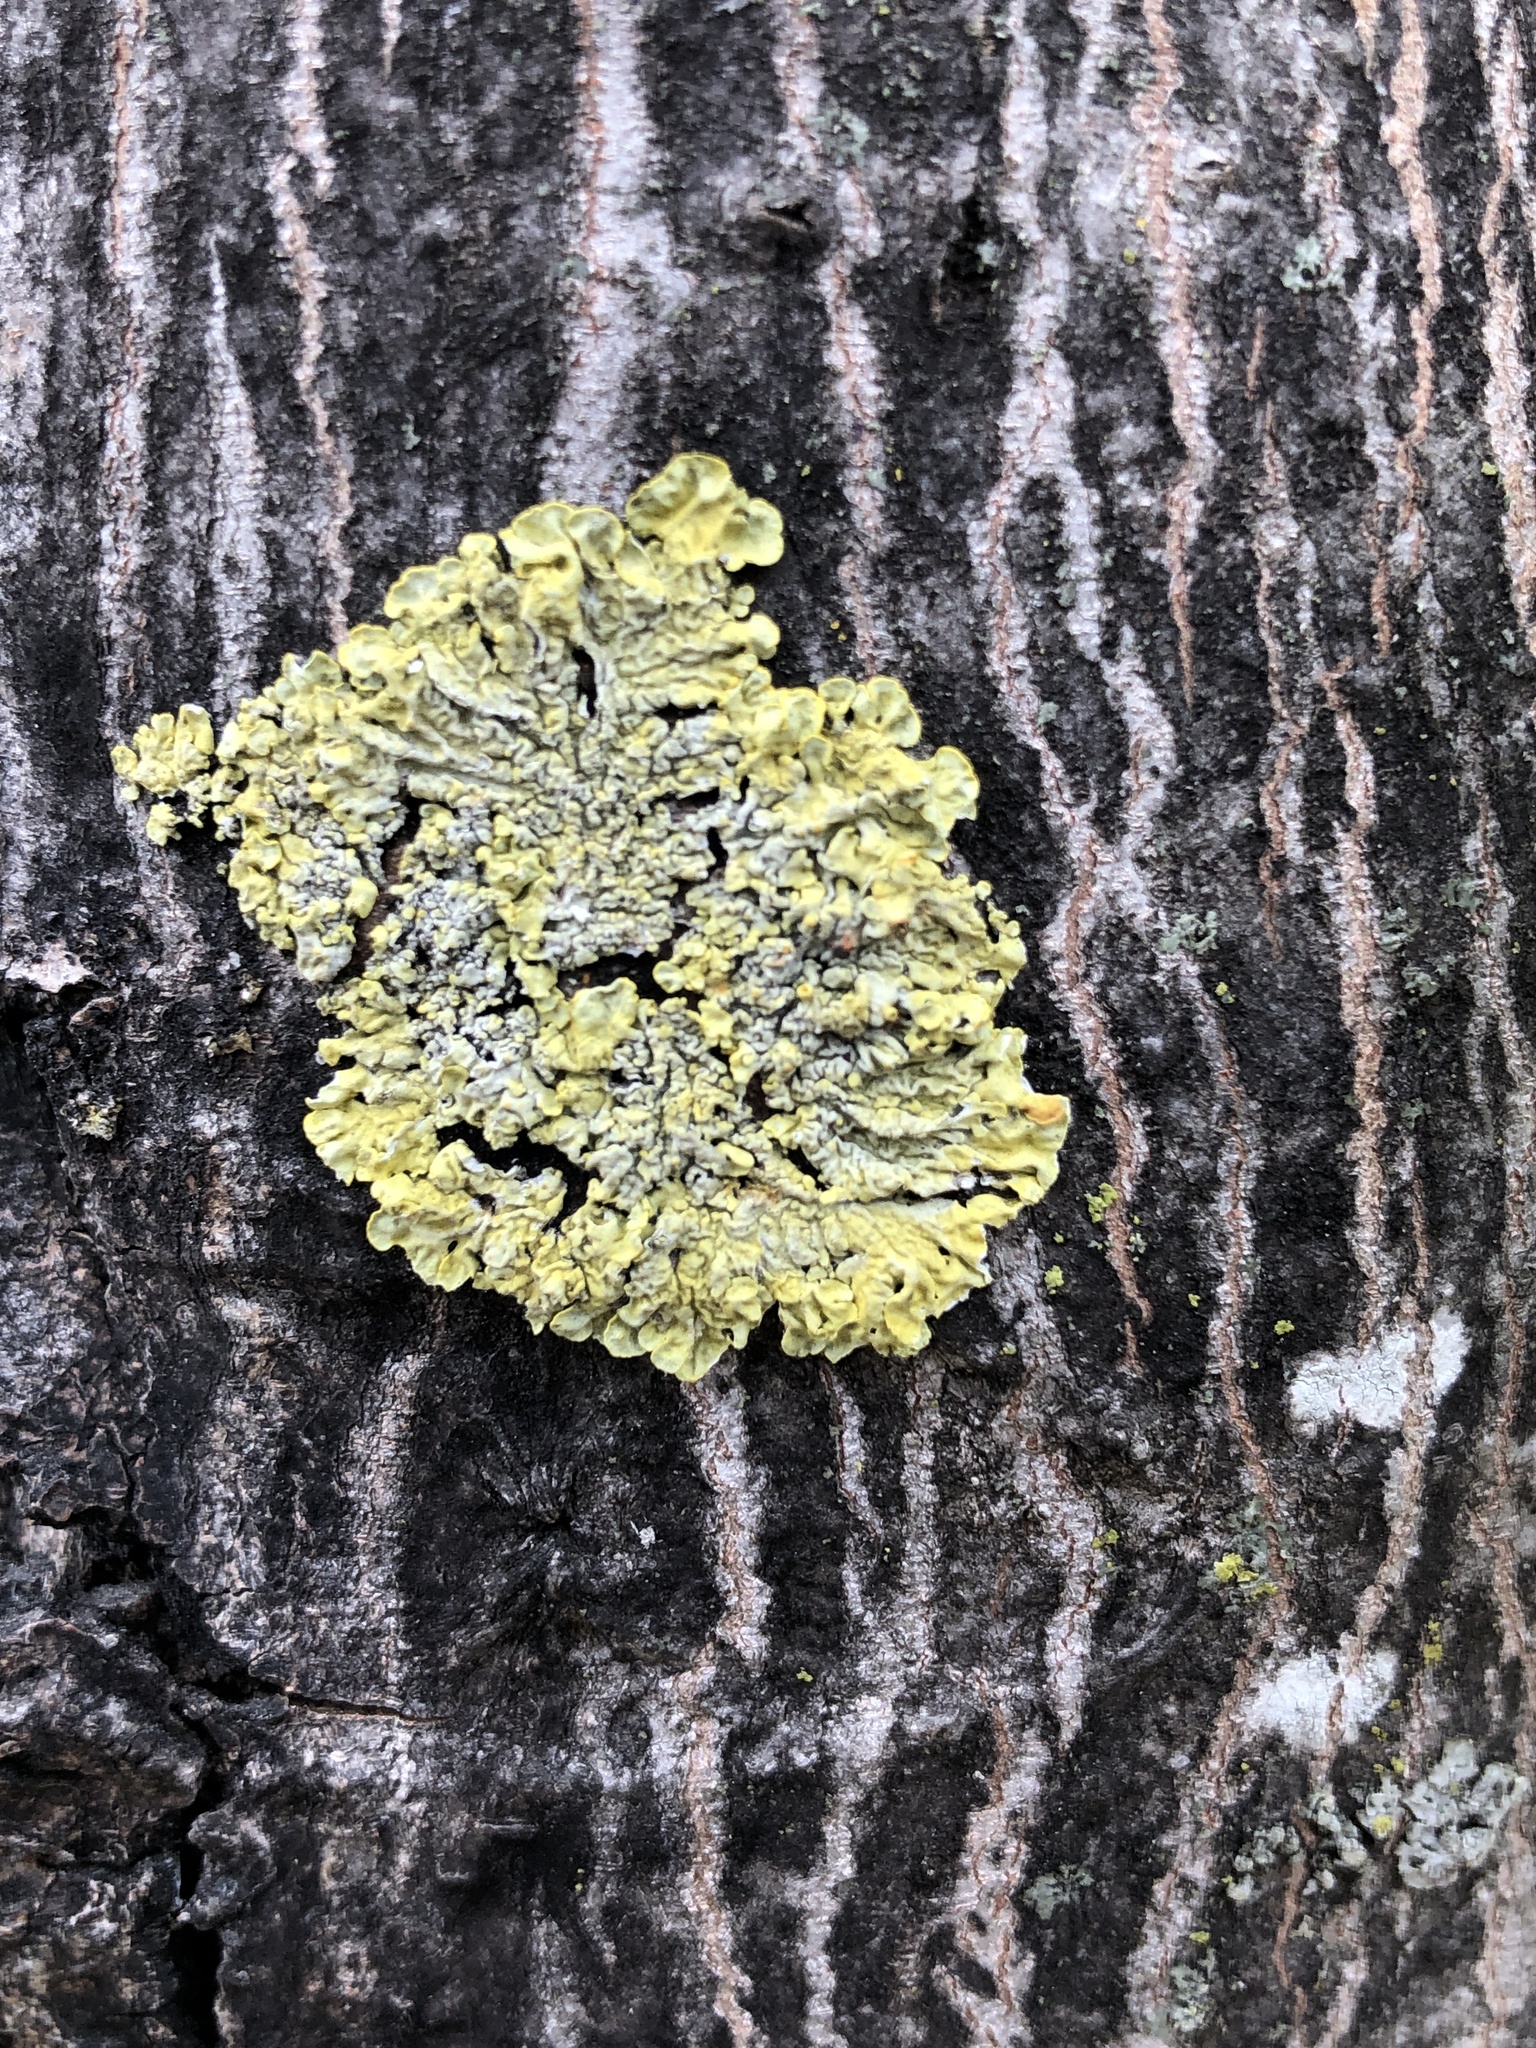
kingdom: Fungi
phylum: Ascomycota
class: Lecanoromycetes
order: Teloschistales
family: Teloschistaceae
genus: Xanthoria
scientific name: Xanthoria parietina
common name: Common orange lichen
